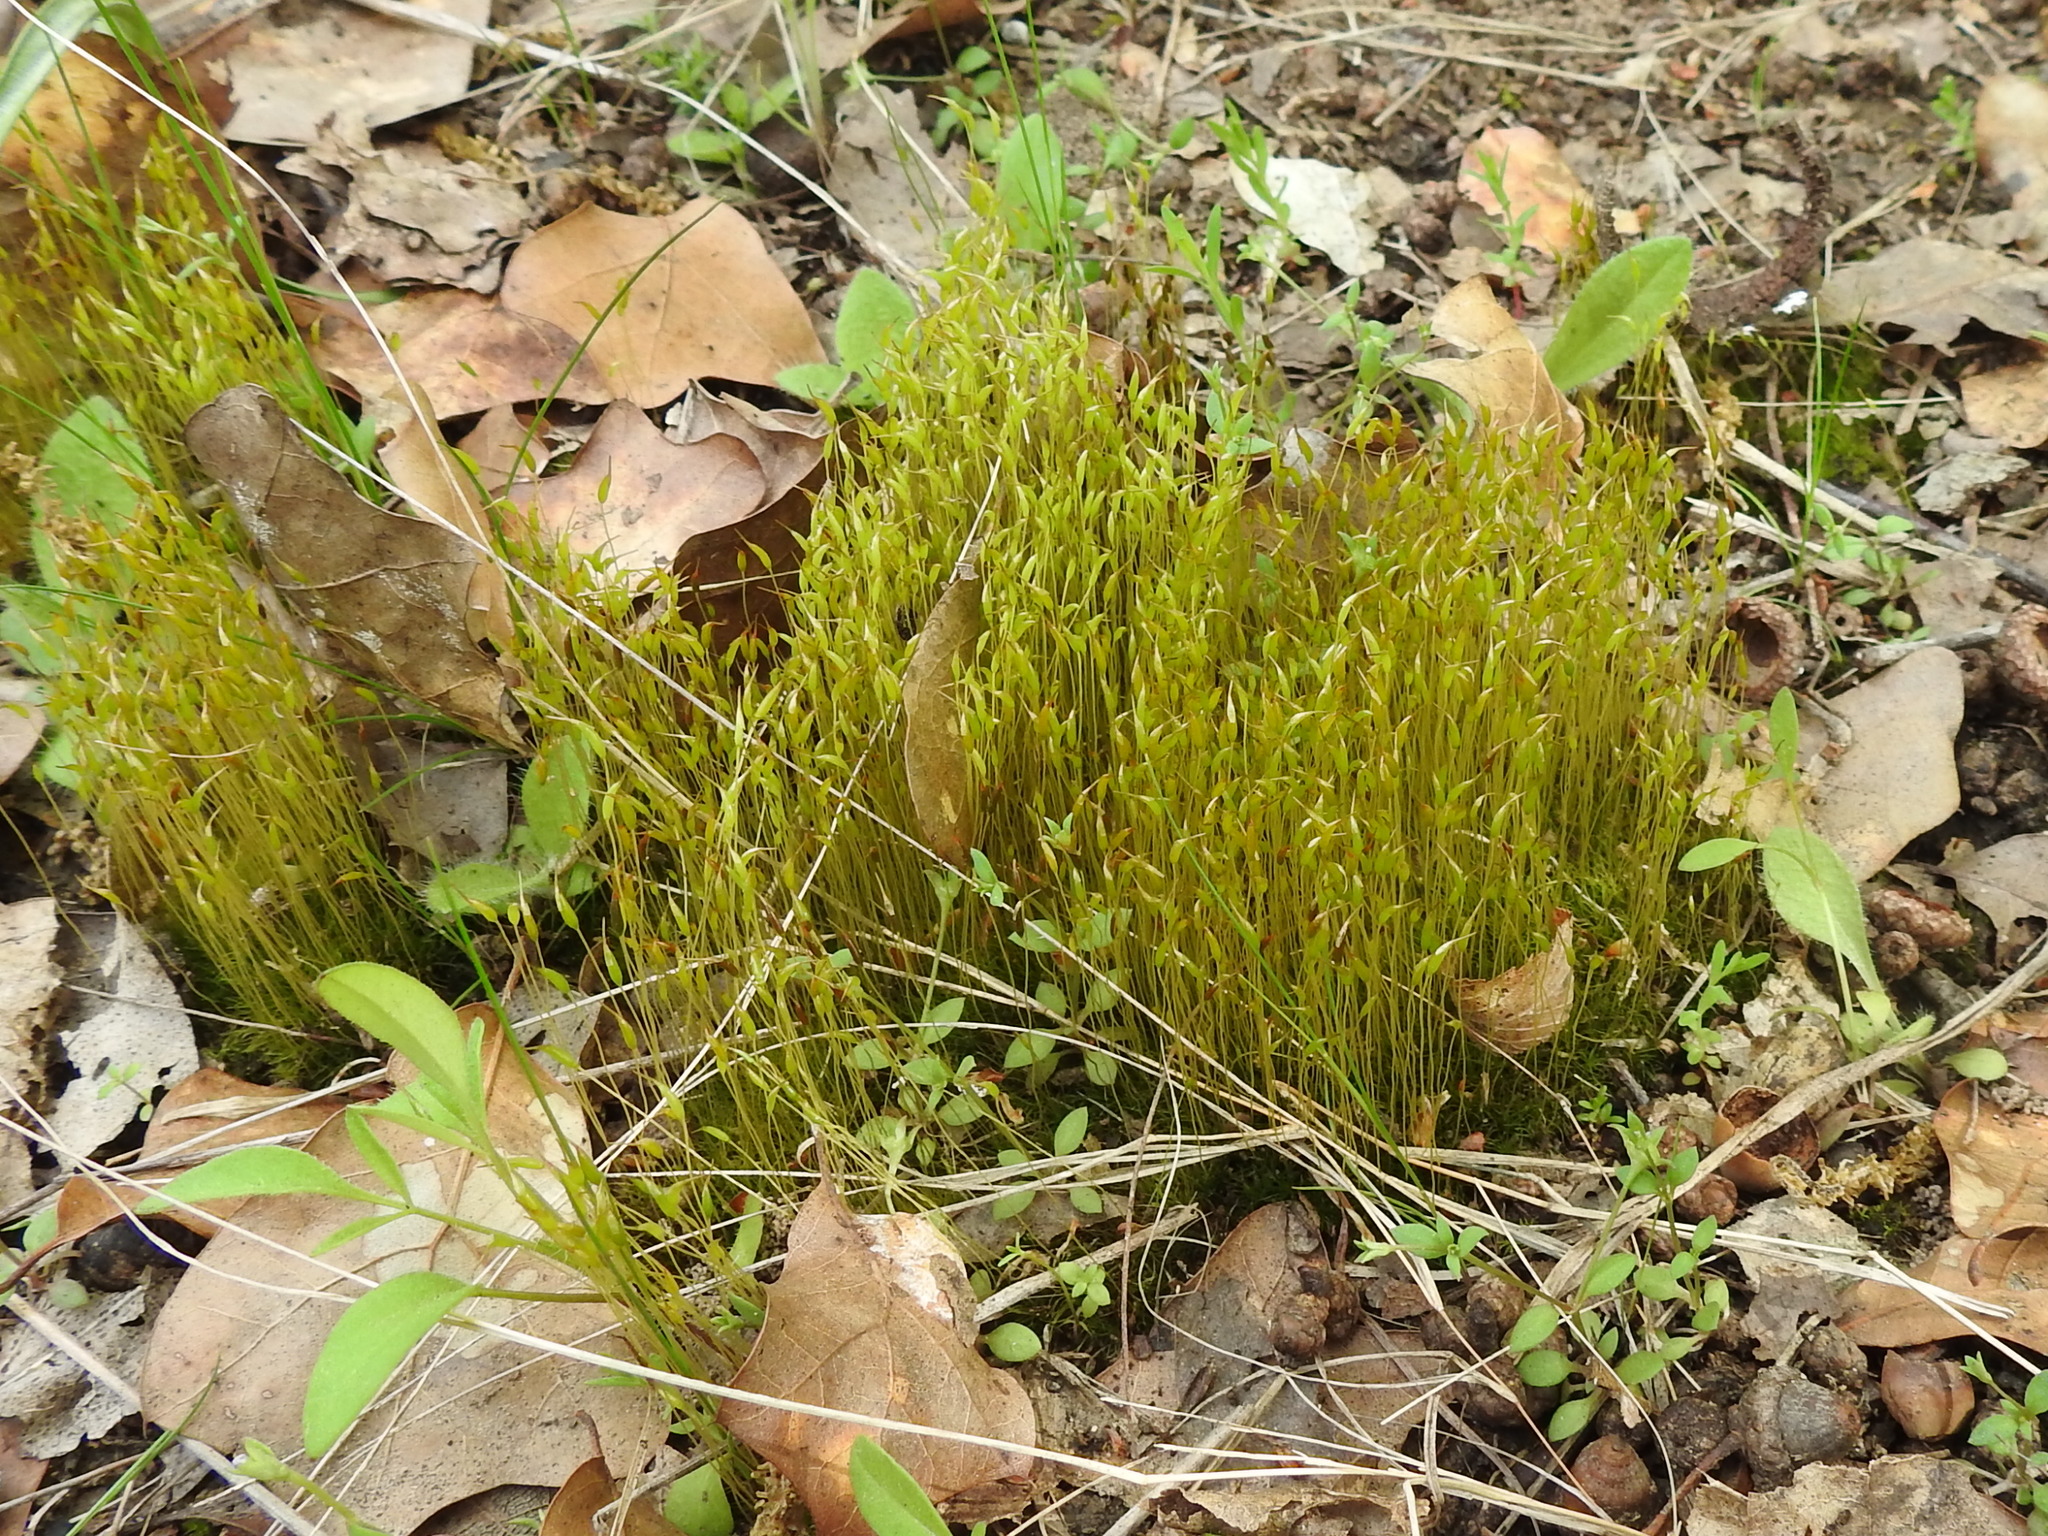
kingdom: Plantae
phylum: Bryophyta
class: Bryopsida
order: Dicranales
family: Ditrichaceae
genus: Ditrichum
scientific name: Ditrichum pallidum
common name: Pale cow-hair moss
